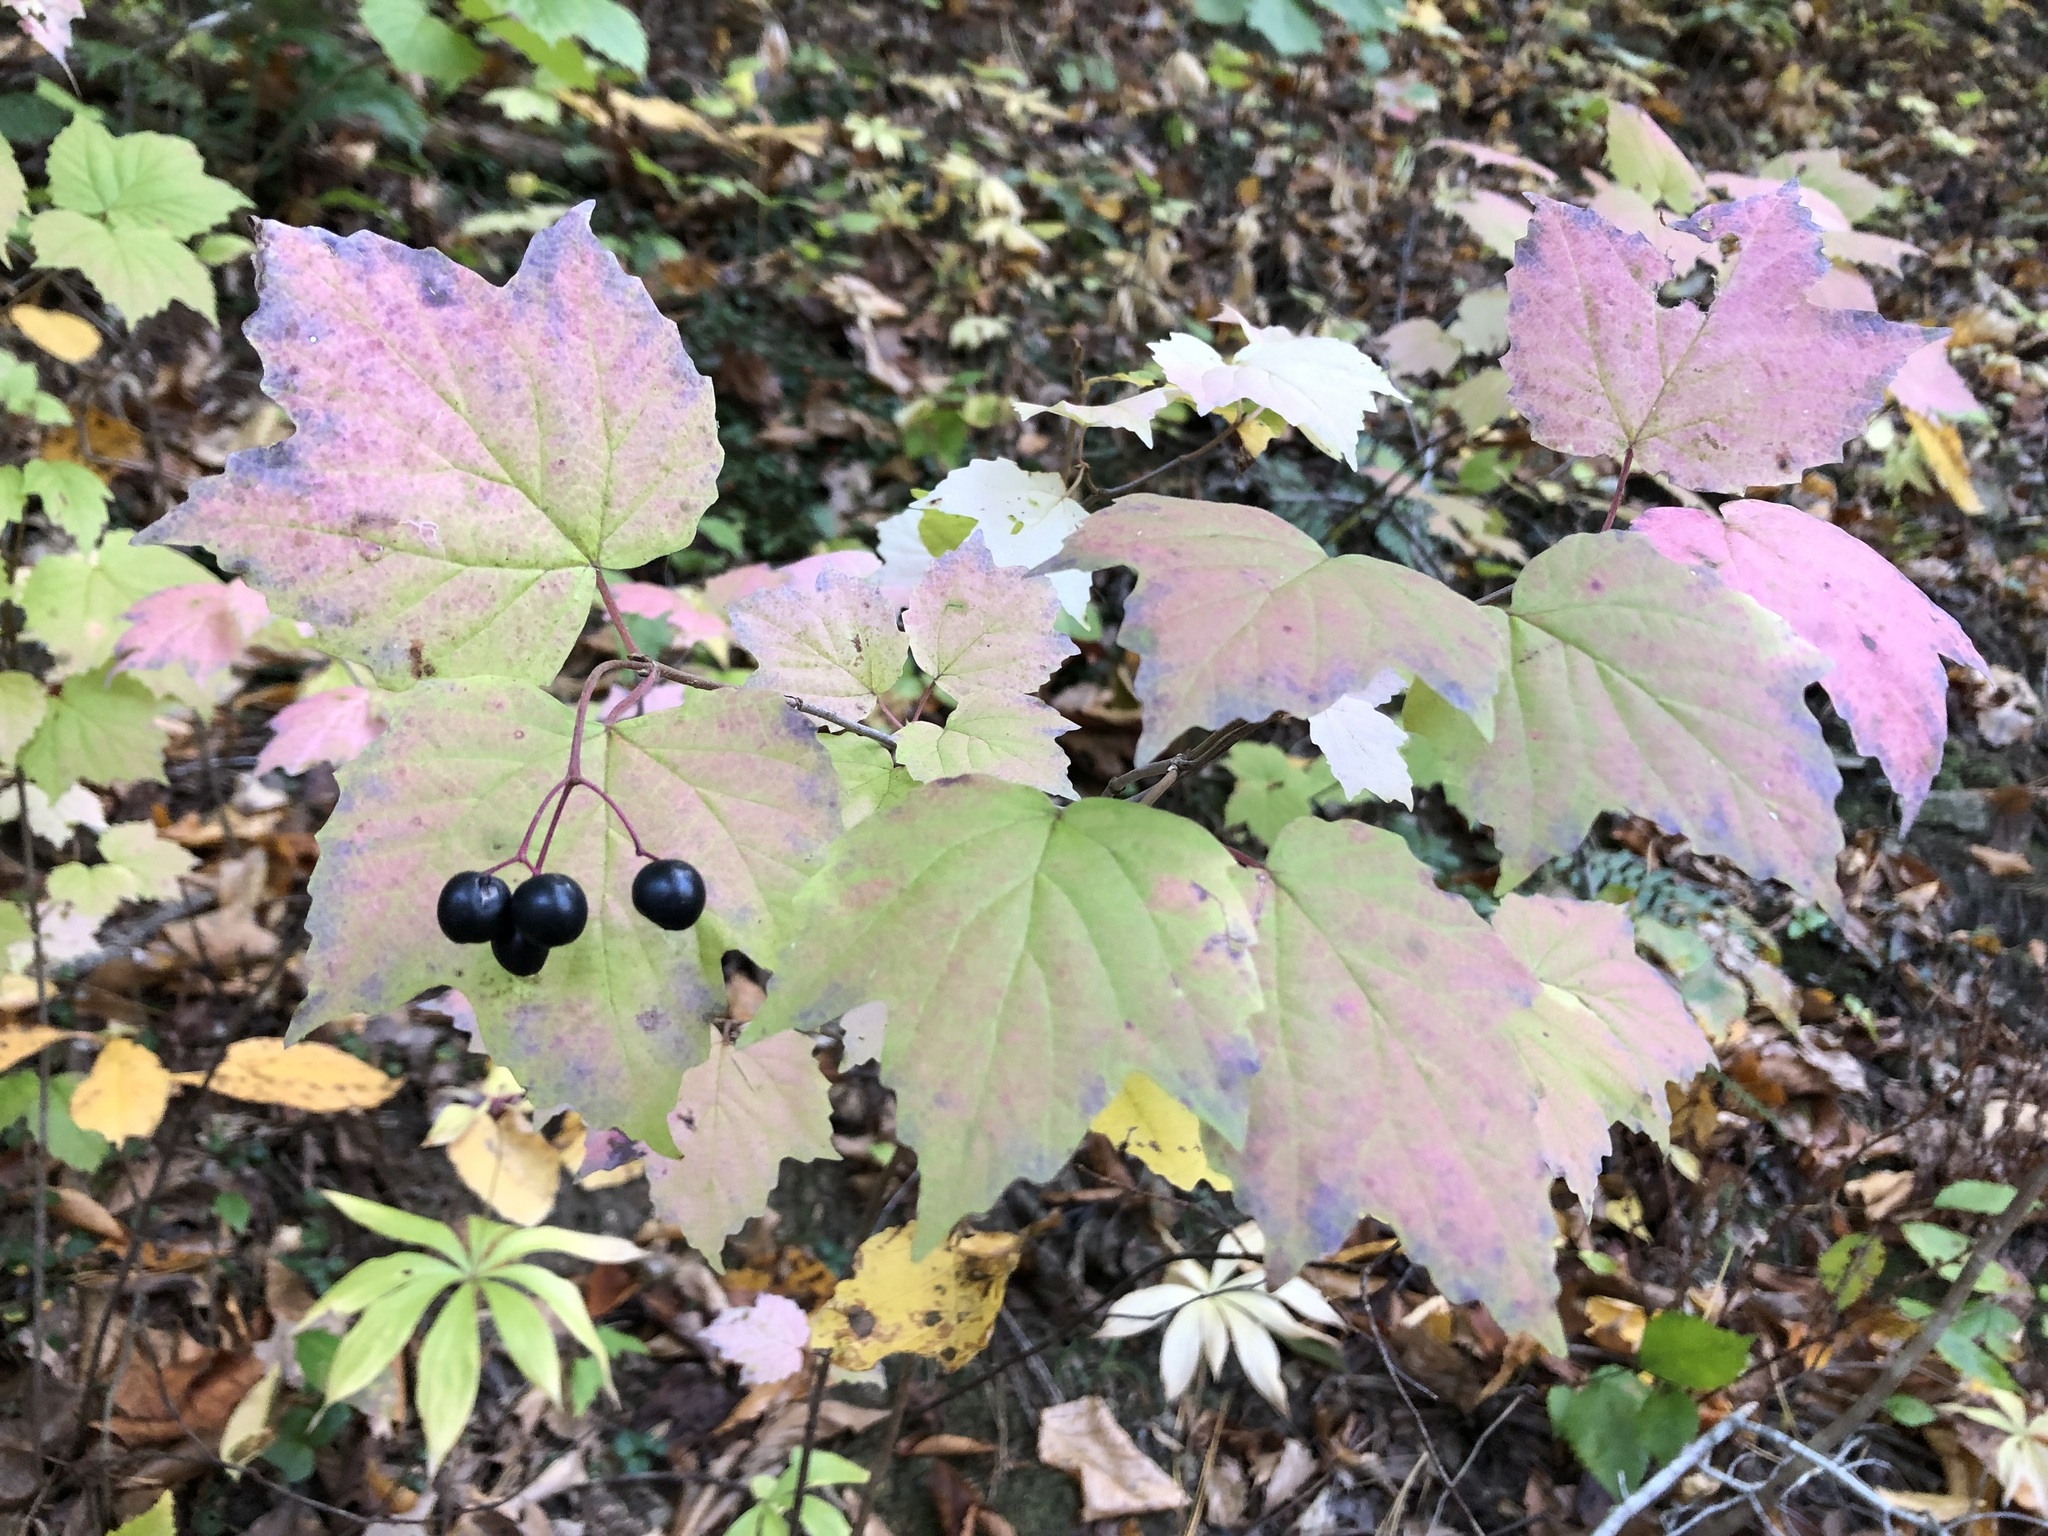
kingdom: Plantae
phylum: Tracheophyta
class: Magnoliopsida
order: Dipsacales
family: Viburnaceae
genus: Viburnum
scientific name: Viburnum acerifolium
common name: Dockmackie
